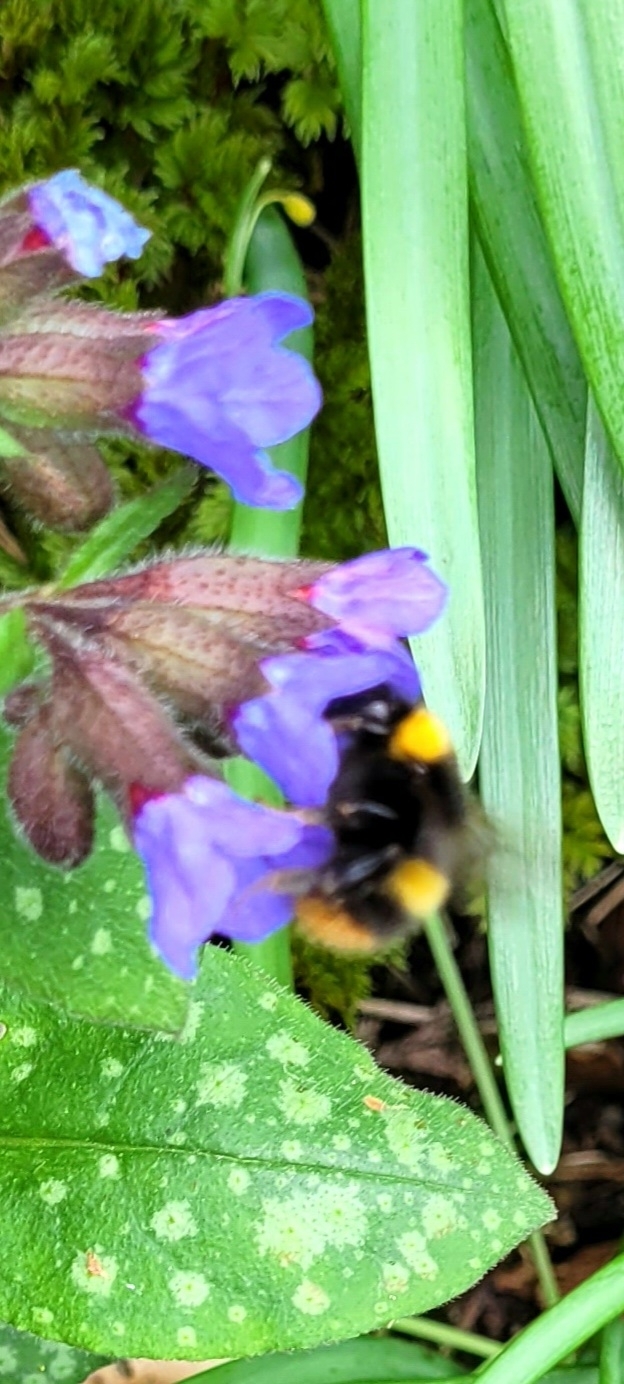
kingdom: Animalia
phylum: Arthropoda
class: Insecta
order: Hymenoptera
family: Apidae
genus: Bombus
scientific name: Bombus pratorum
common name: Early humble-bee
